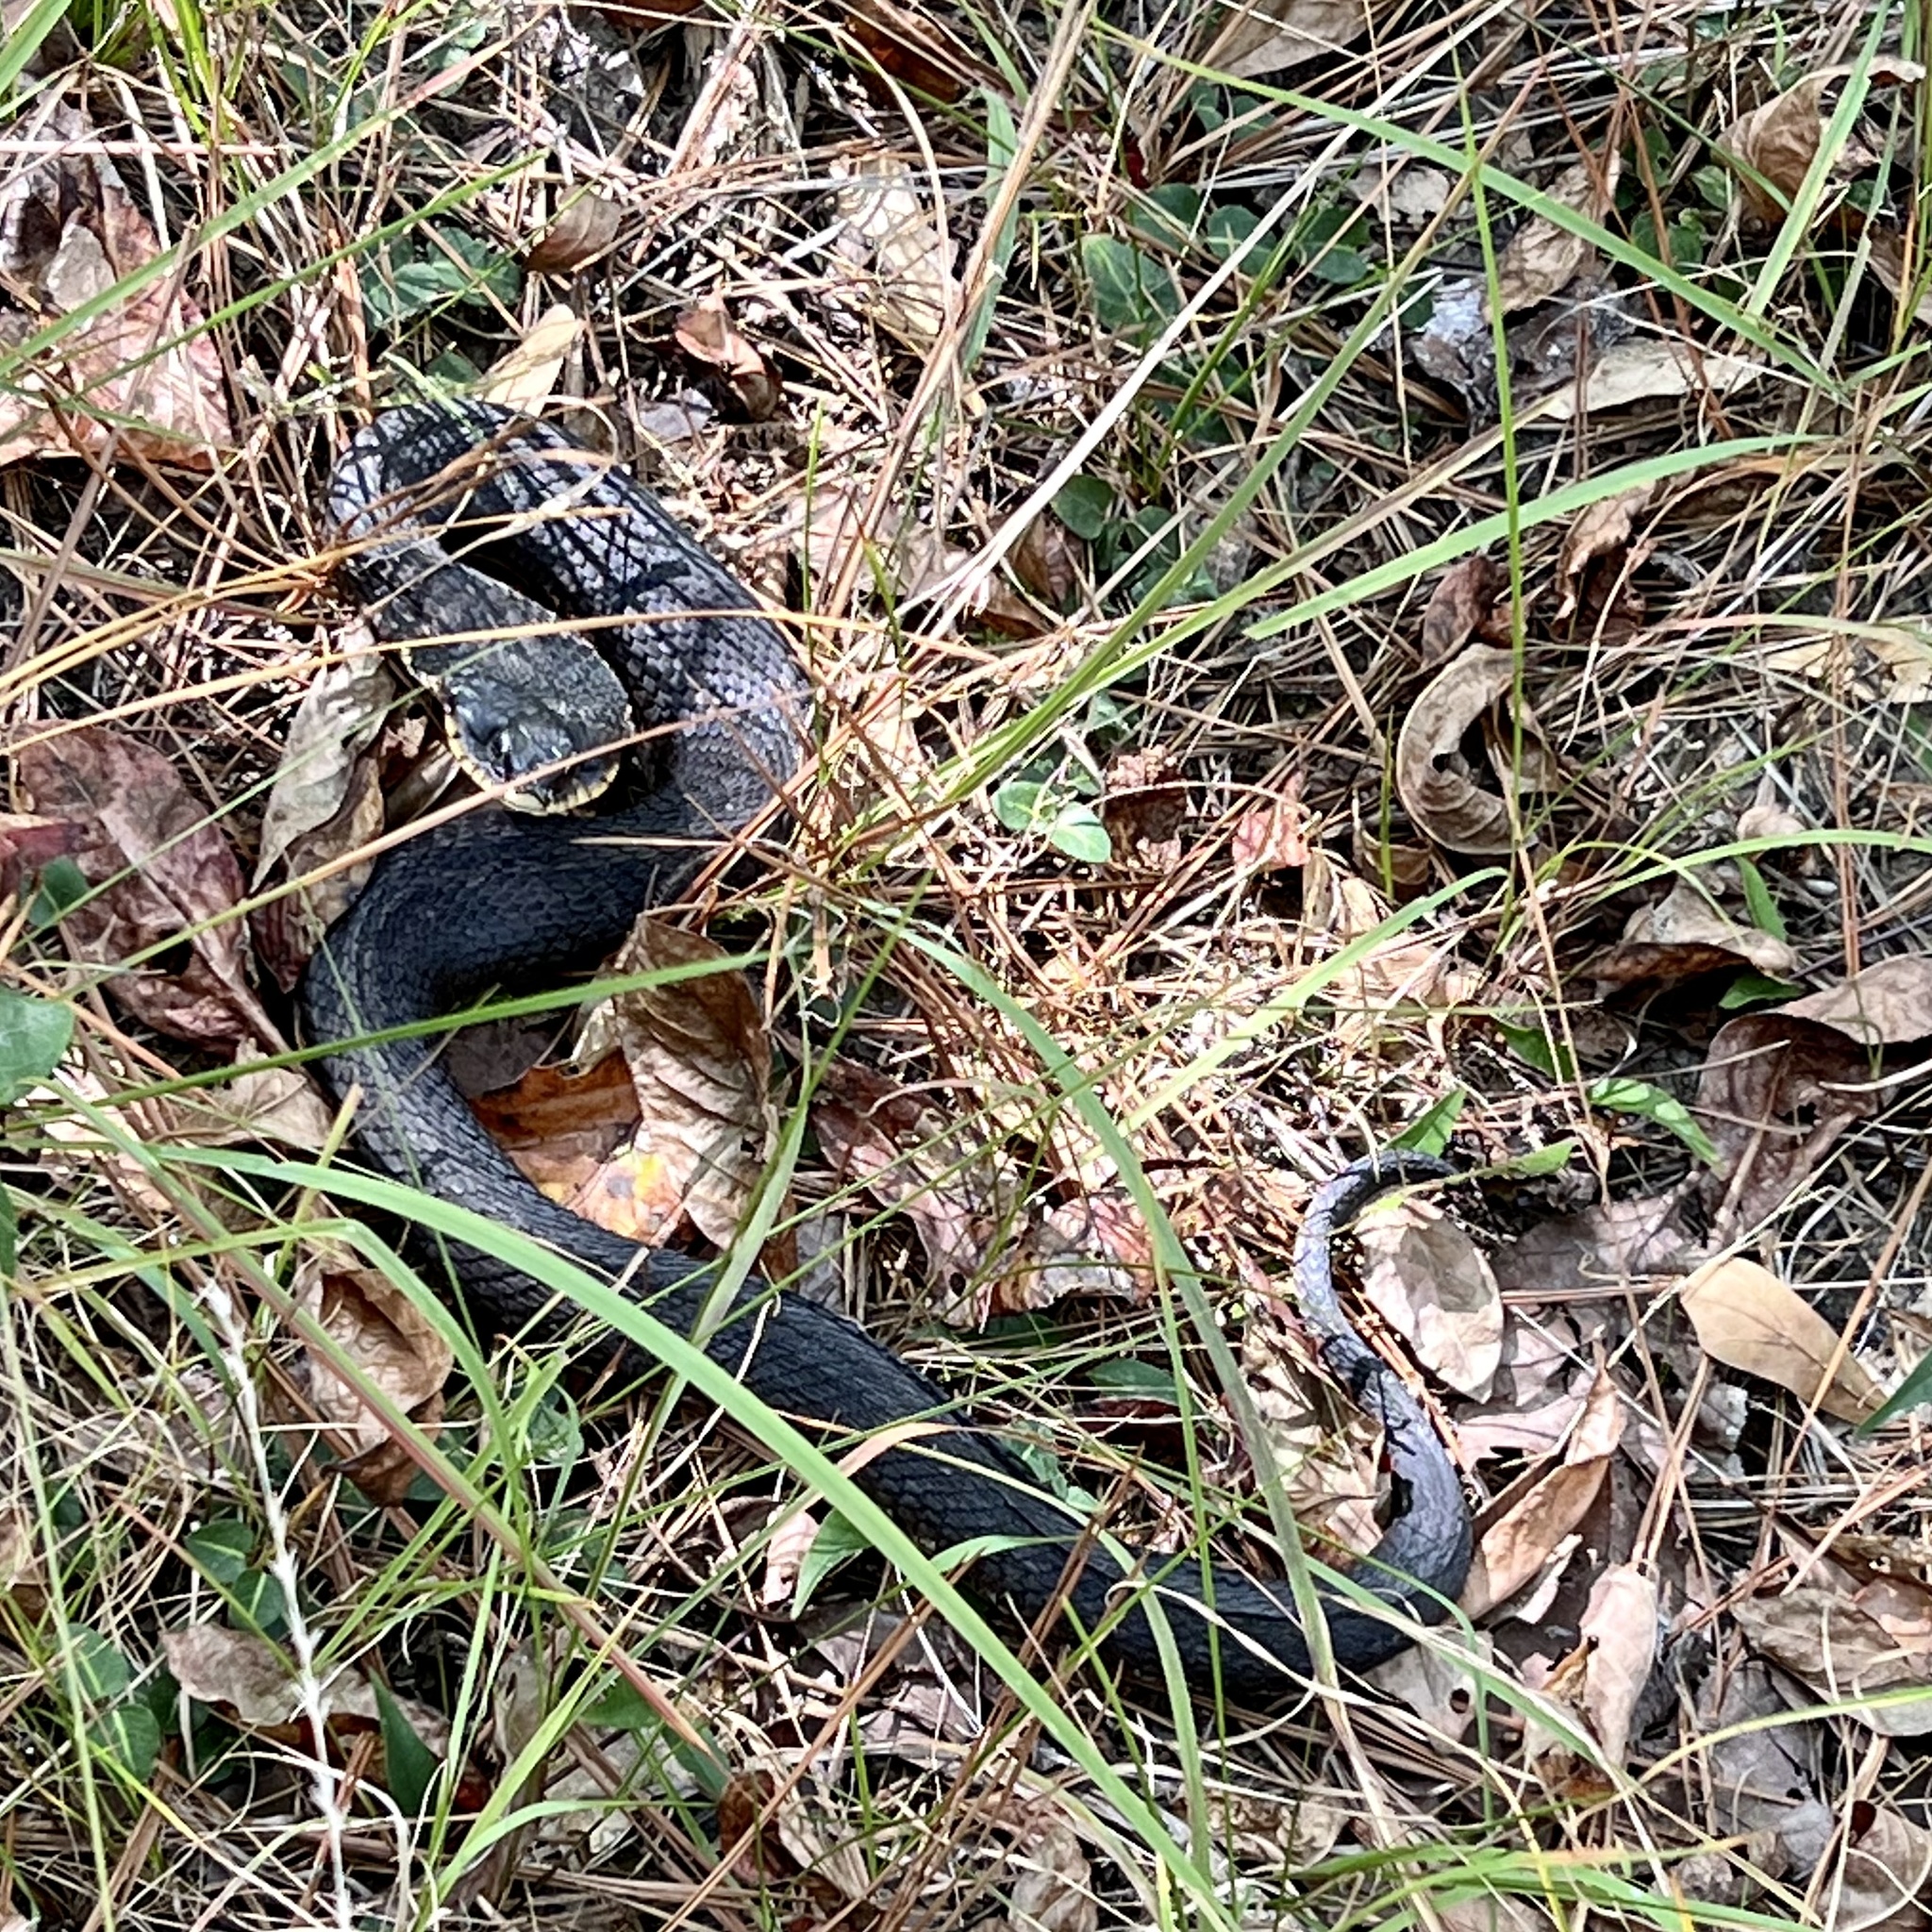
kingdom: Animalia
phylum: Chordata
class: Squamata
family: Colubridae
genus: Heterodon
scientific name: Heterodon platirhinos
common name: Eastern hognose snake
